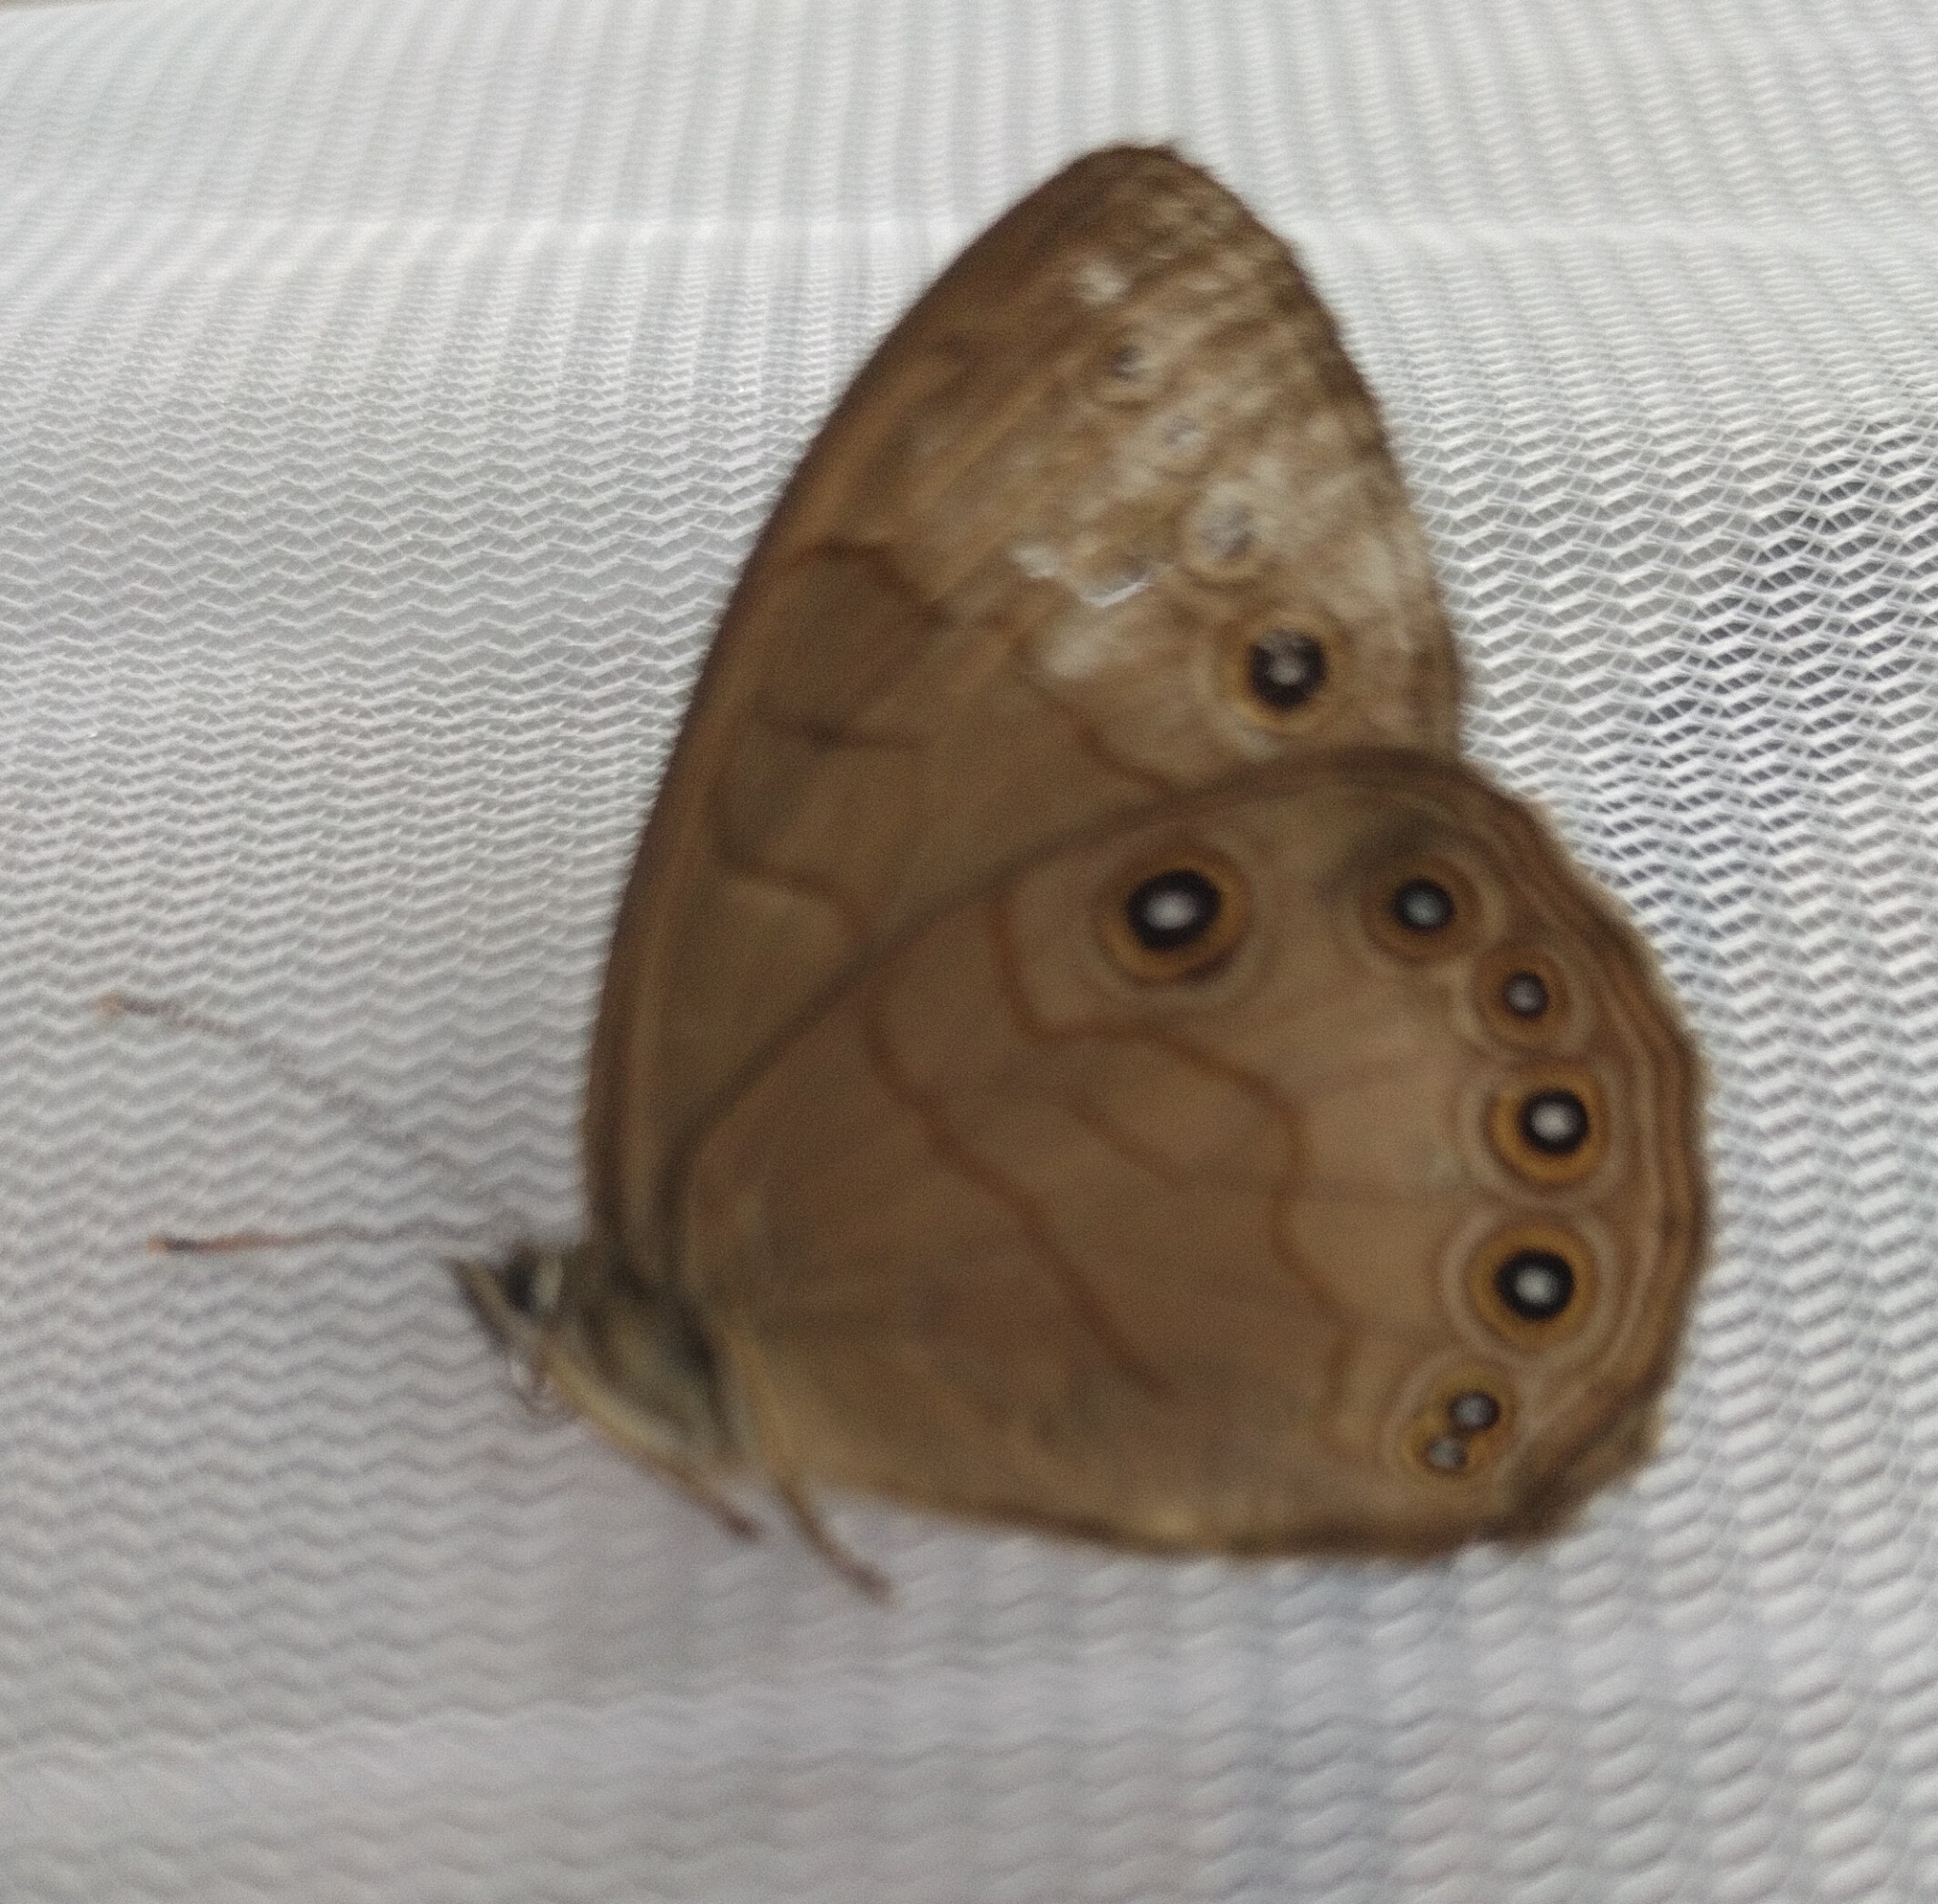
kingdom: Animalia
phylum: Arthropoda
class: Insecta
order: Lepidoptera
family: Nymphalidae
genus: Lethe
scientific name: Lethe eurydice
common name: Eyed brown
